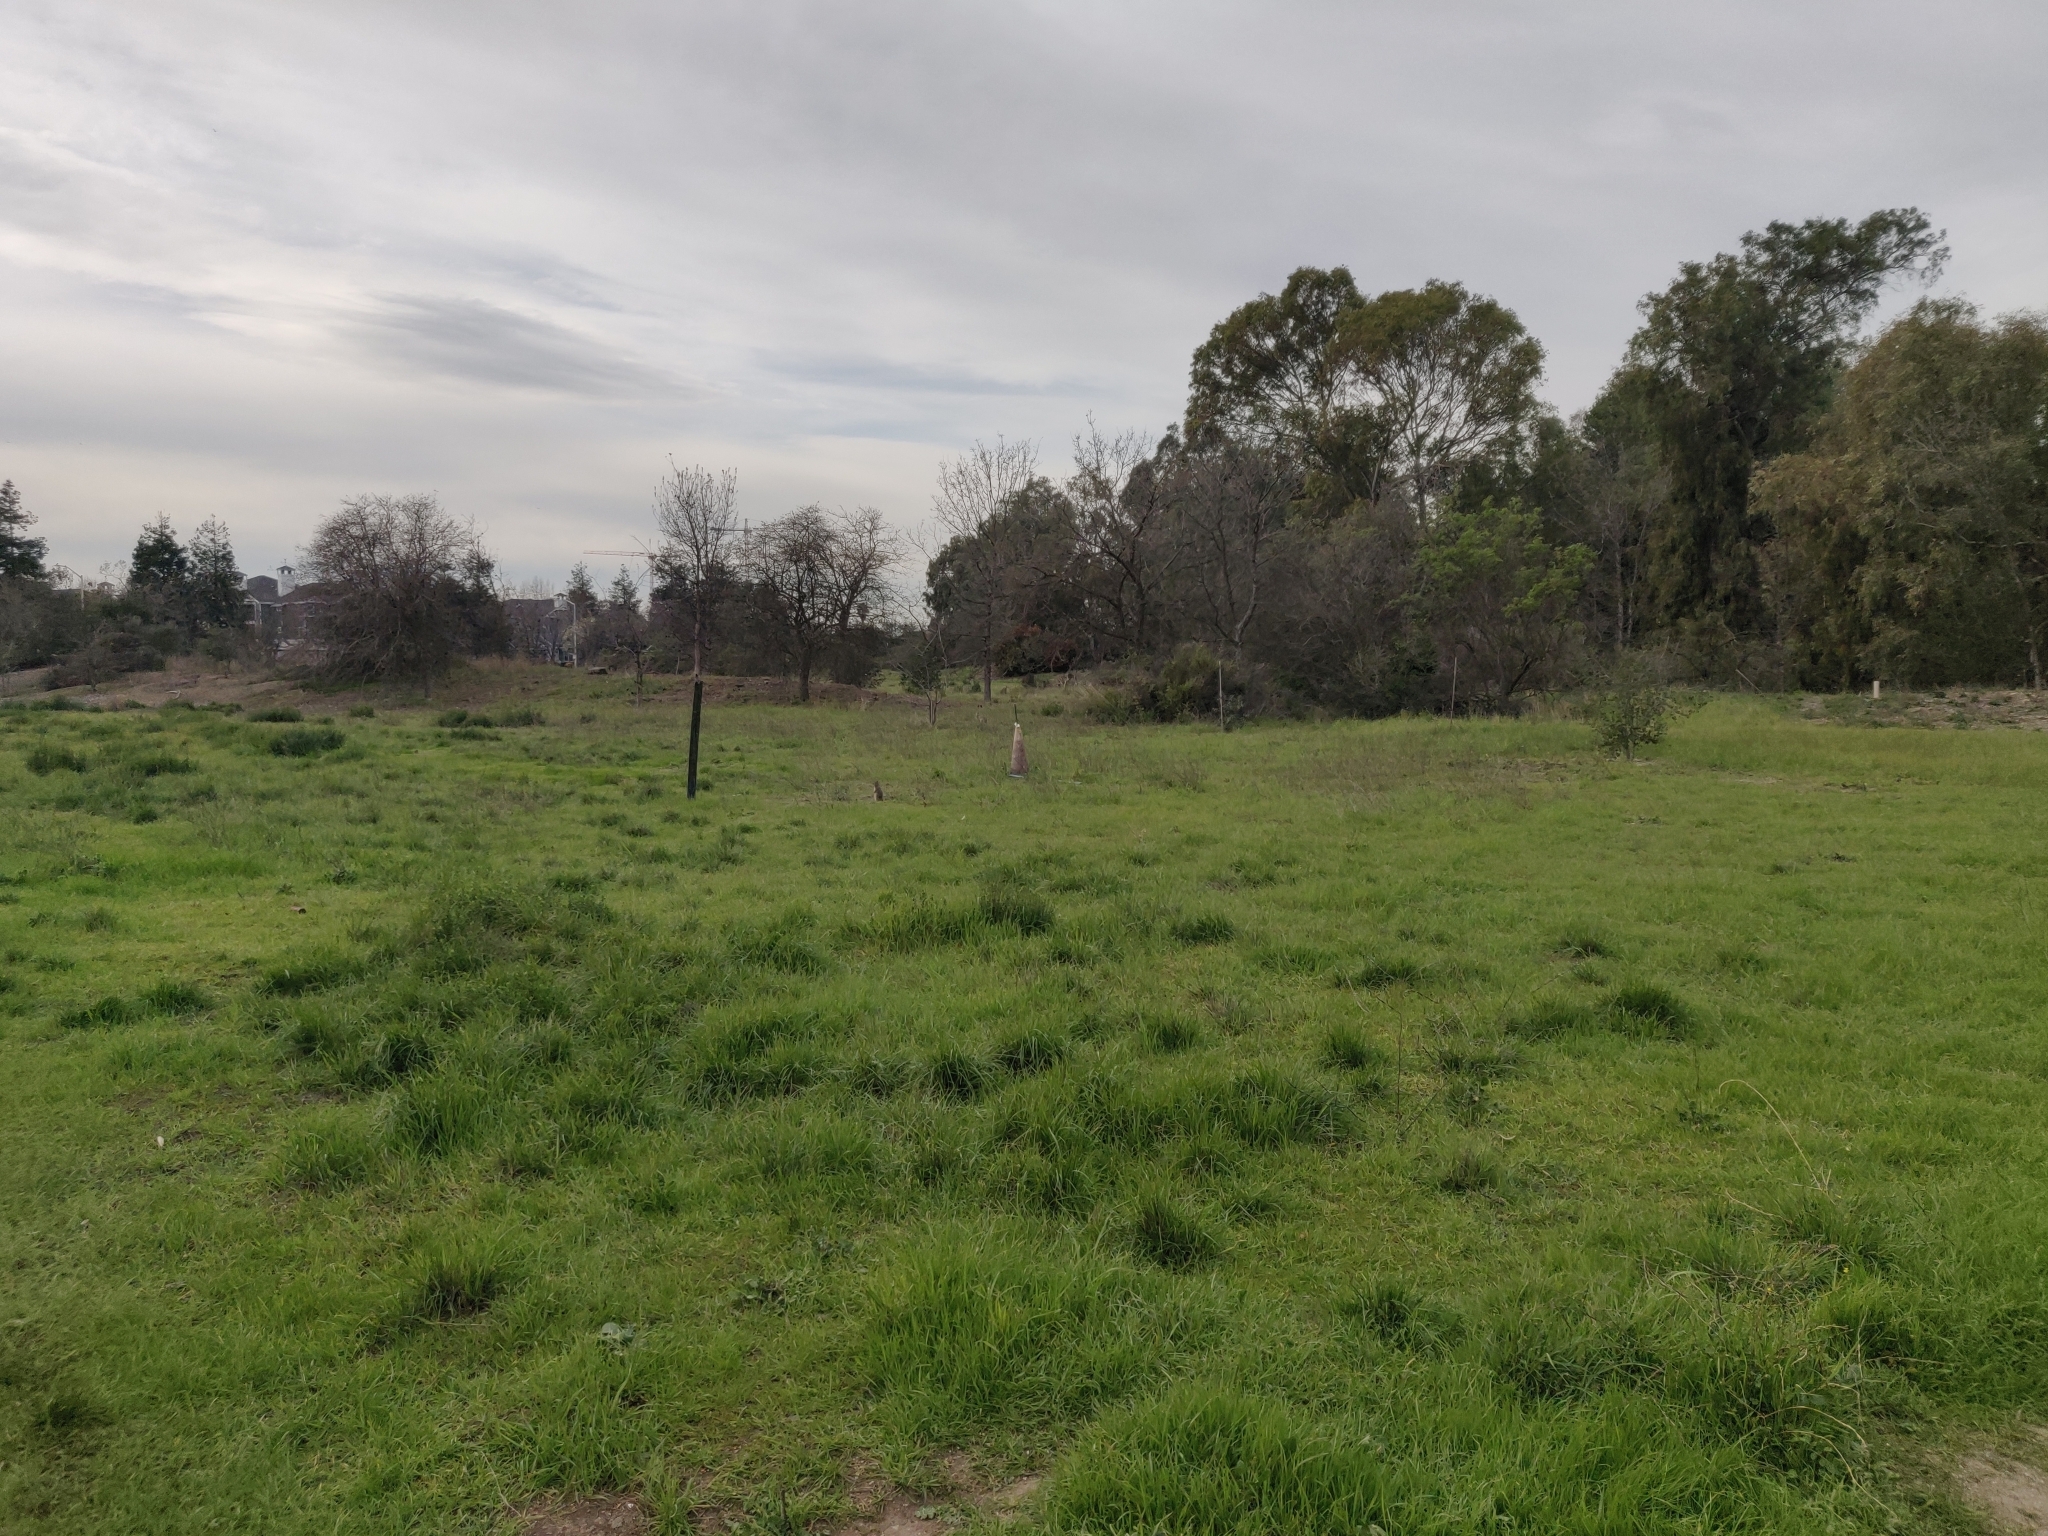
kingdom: Animalia
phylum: Chordata
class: Mammalia
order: Lagomorpha
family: Leporidae
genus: Lepus
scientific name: Lepus californicus
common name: Black-tailed jackrabbit
